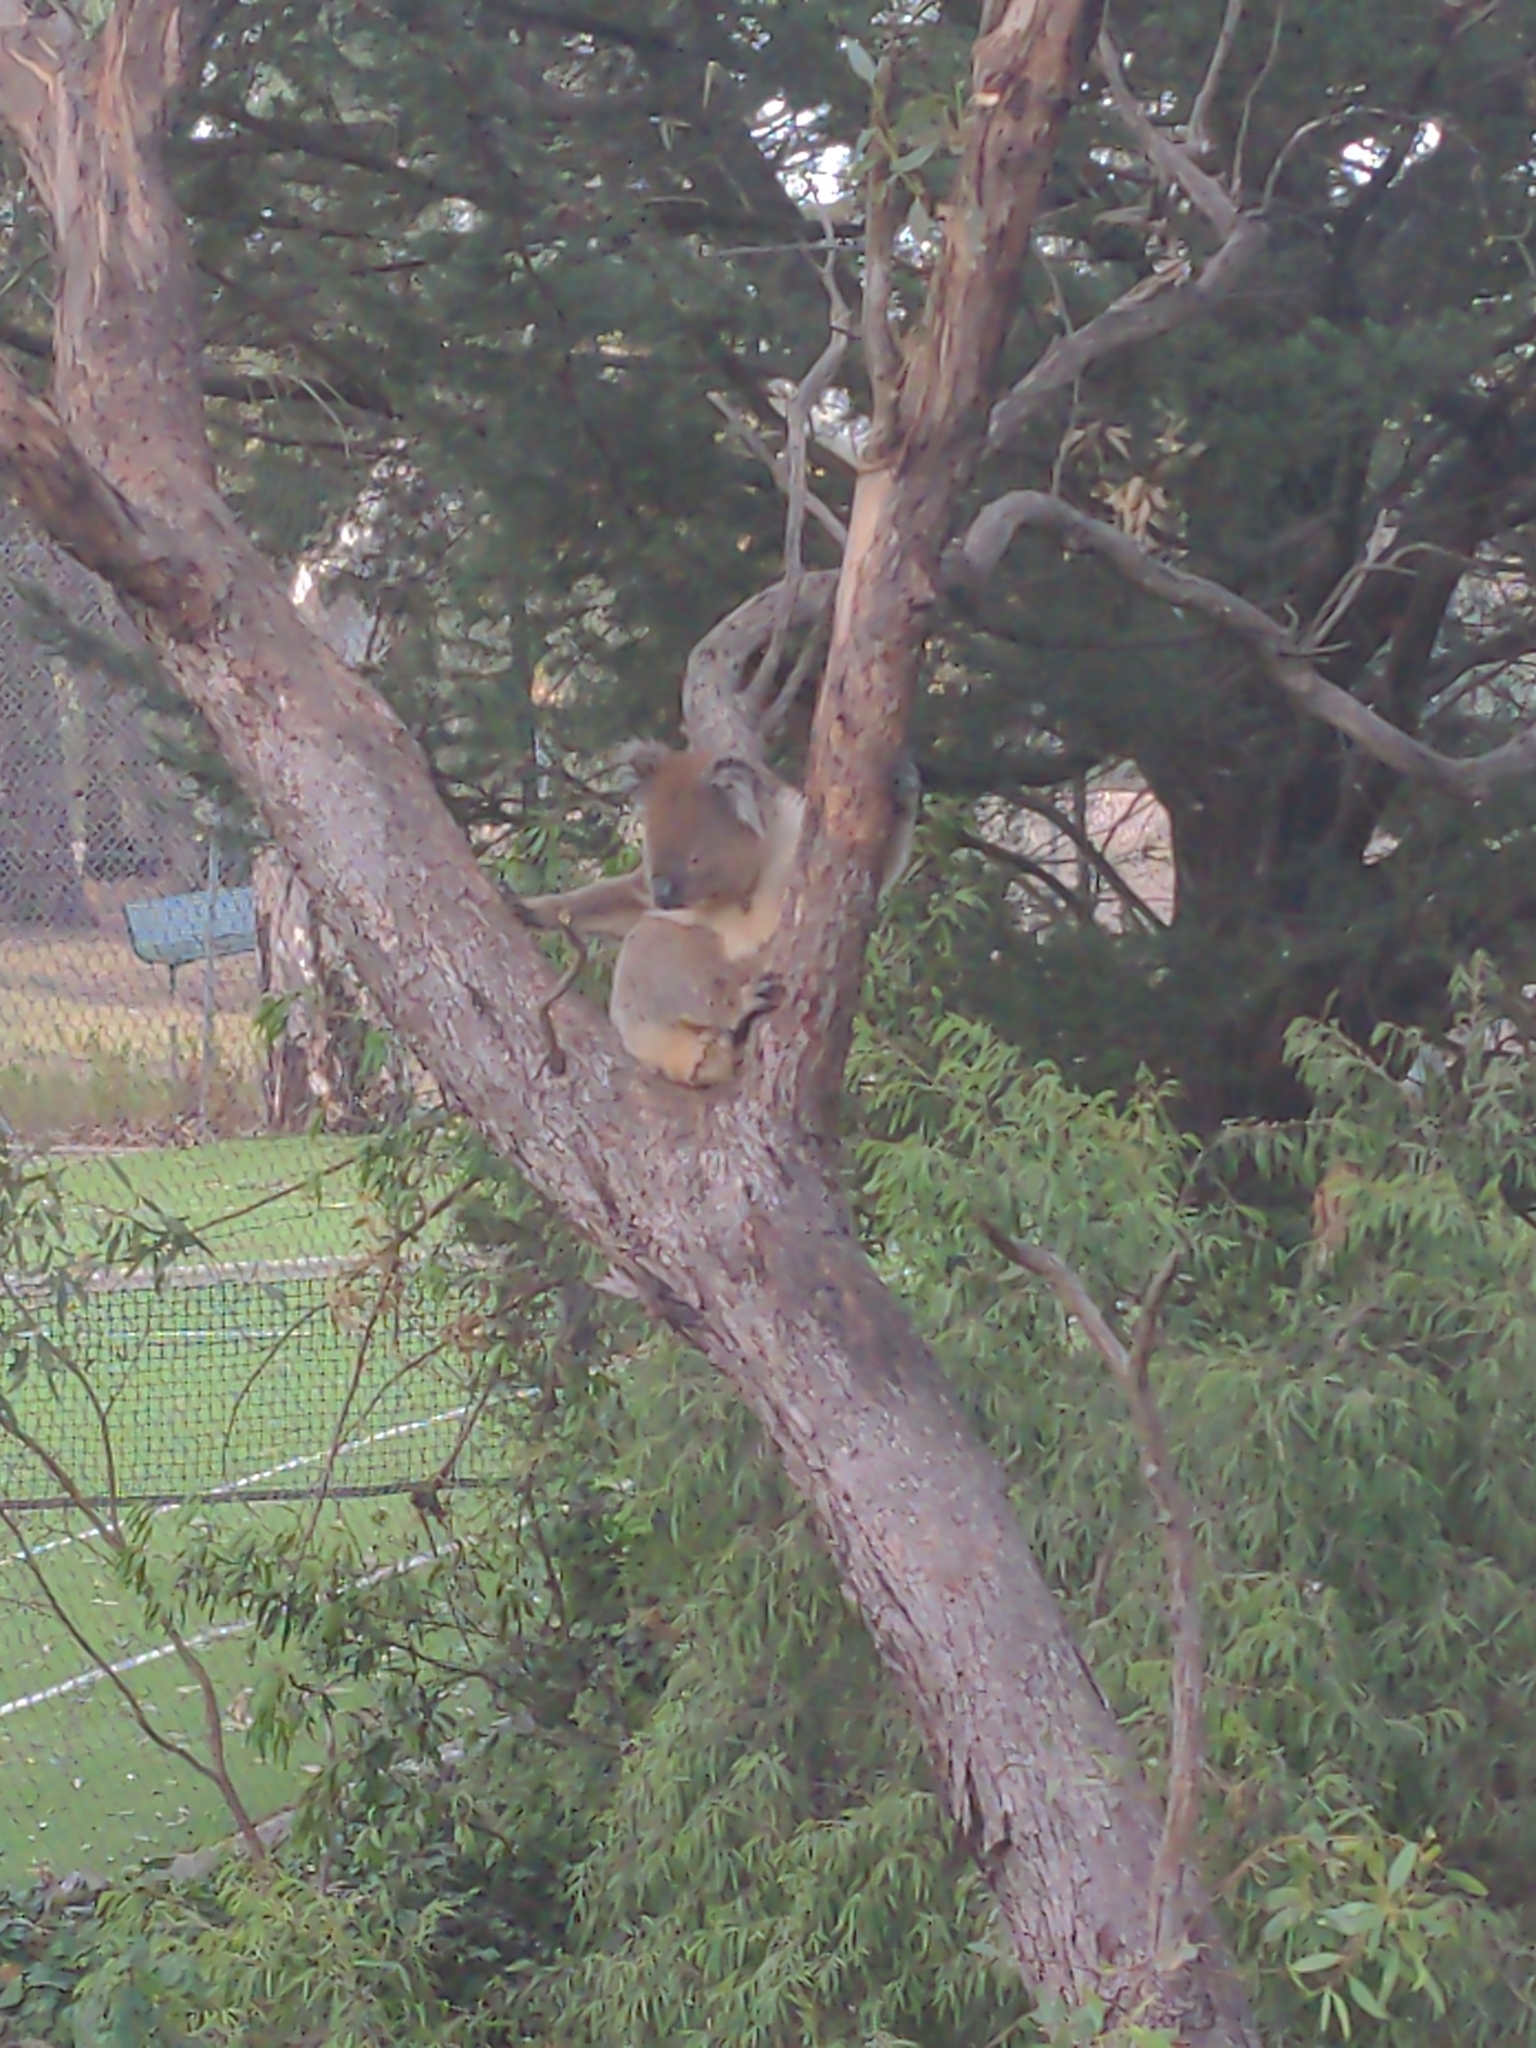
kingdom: Animalia
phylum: Chordata
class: Mammalia
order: Diprotodontia
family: Phascolarctidae
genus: Phascolarctos
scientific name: Phascolarctos cinereus
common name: Koala
